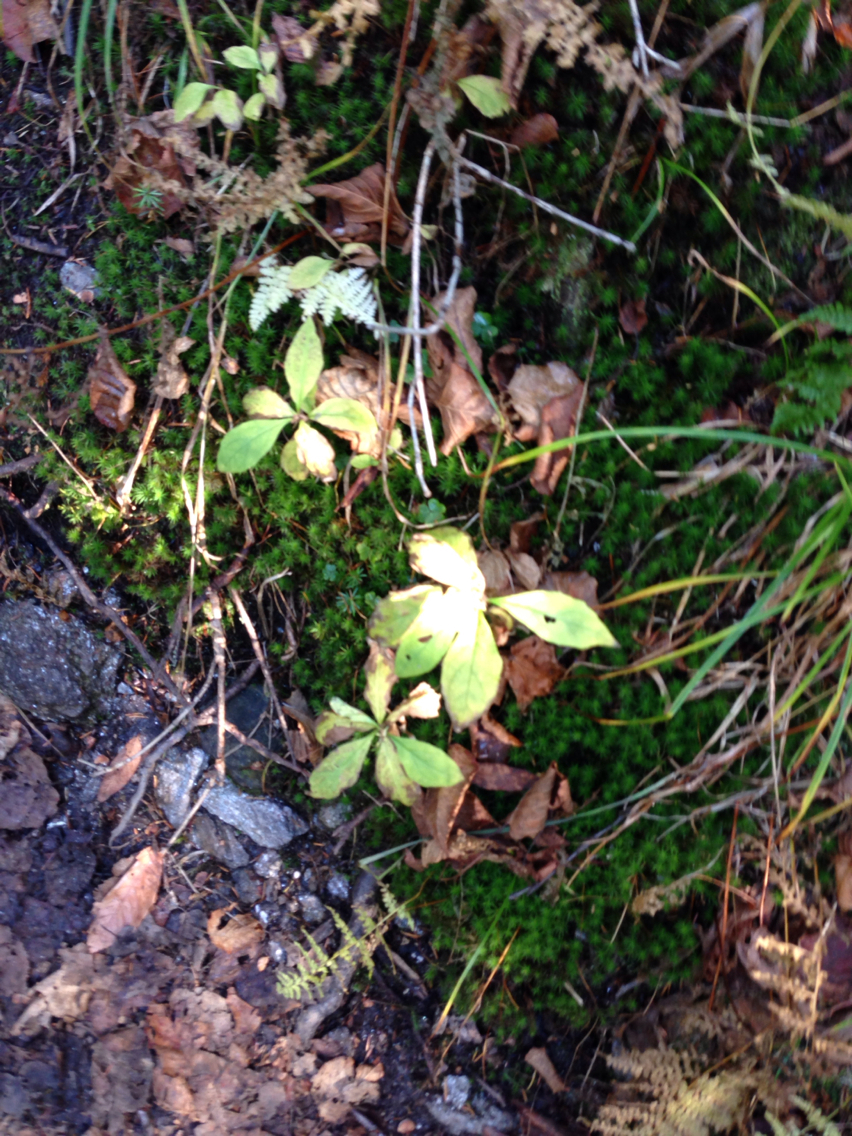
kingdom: Plantae
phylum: Tracheophyta
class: Magnoliopsida
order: Asterales
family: Asteraceae
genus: Oclemena
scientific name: Oclemena acuminata
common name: Mountain aster
